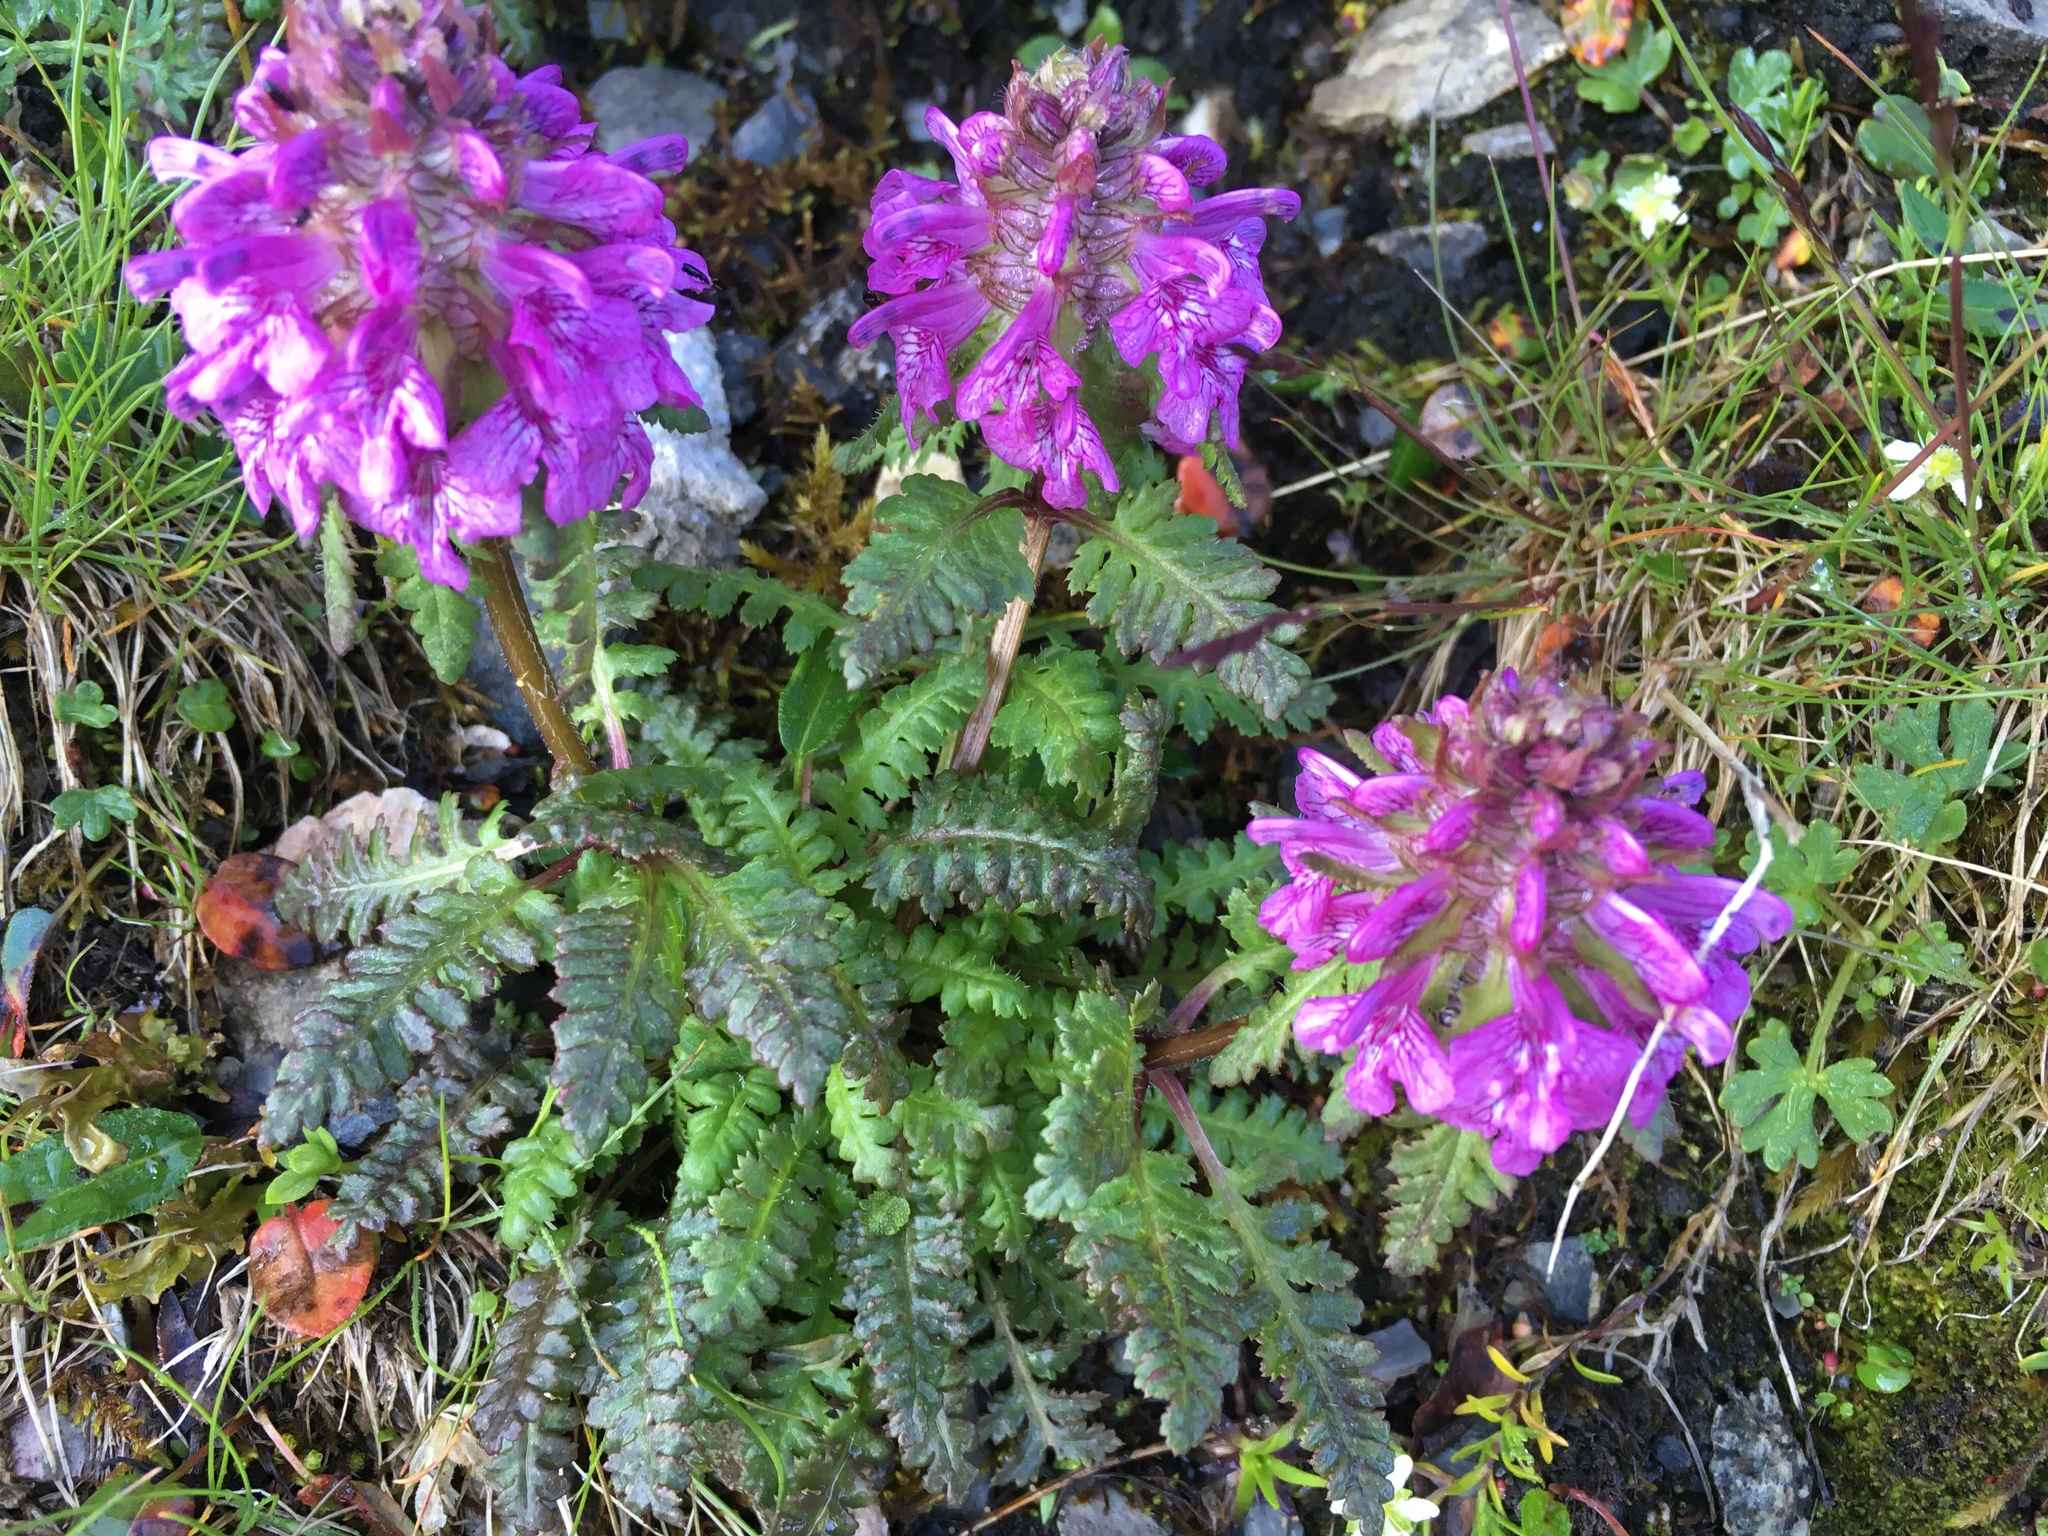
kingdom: Plantae
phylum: Tracheophyta
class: Magnoliopsida
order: Lamiales
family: Orobanchaceae
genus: Pedicularis
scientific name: Pedicularis verticillata
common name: Whorled lousewort
